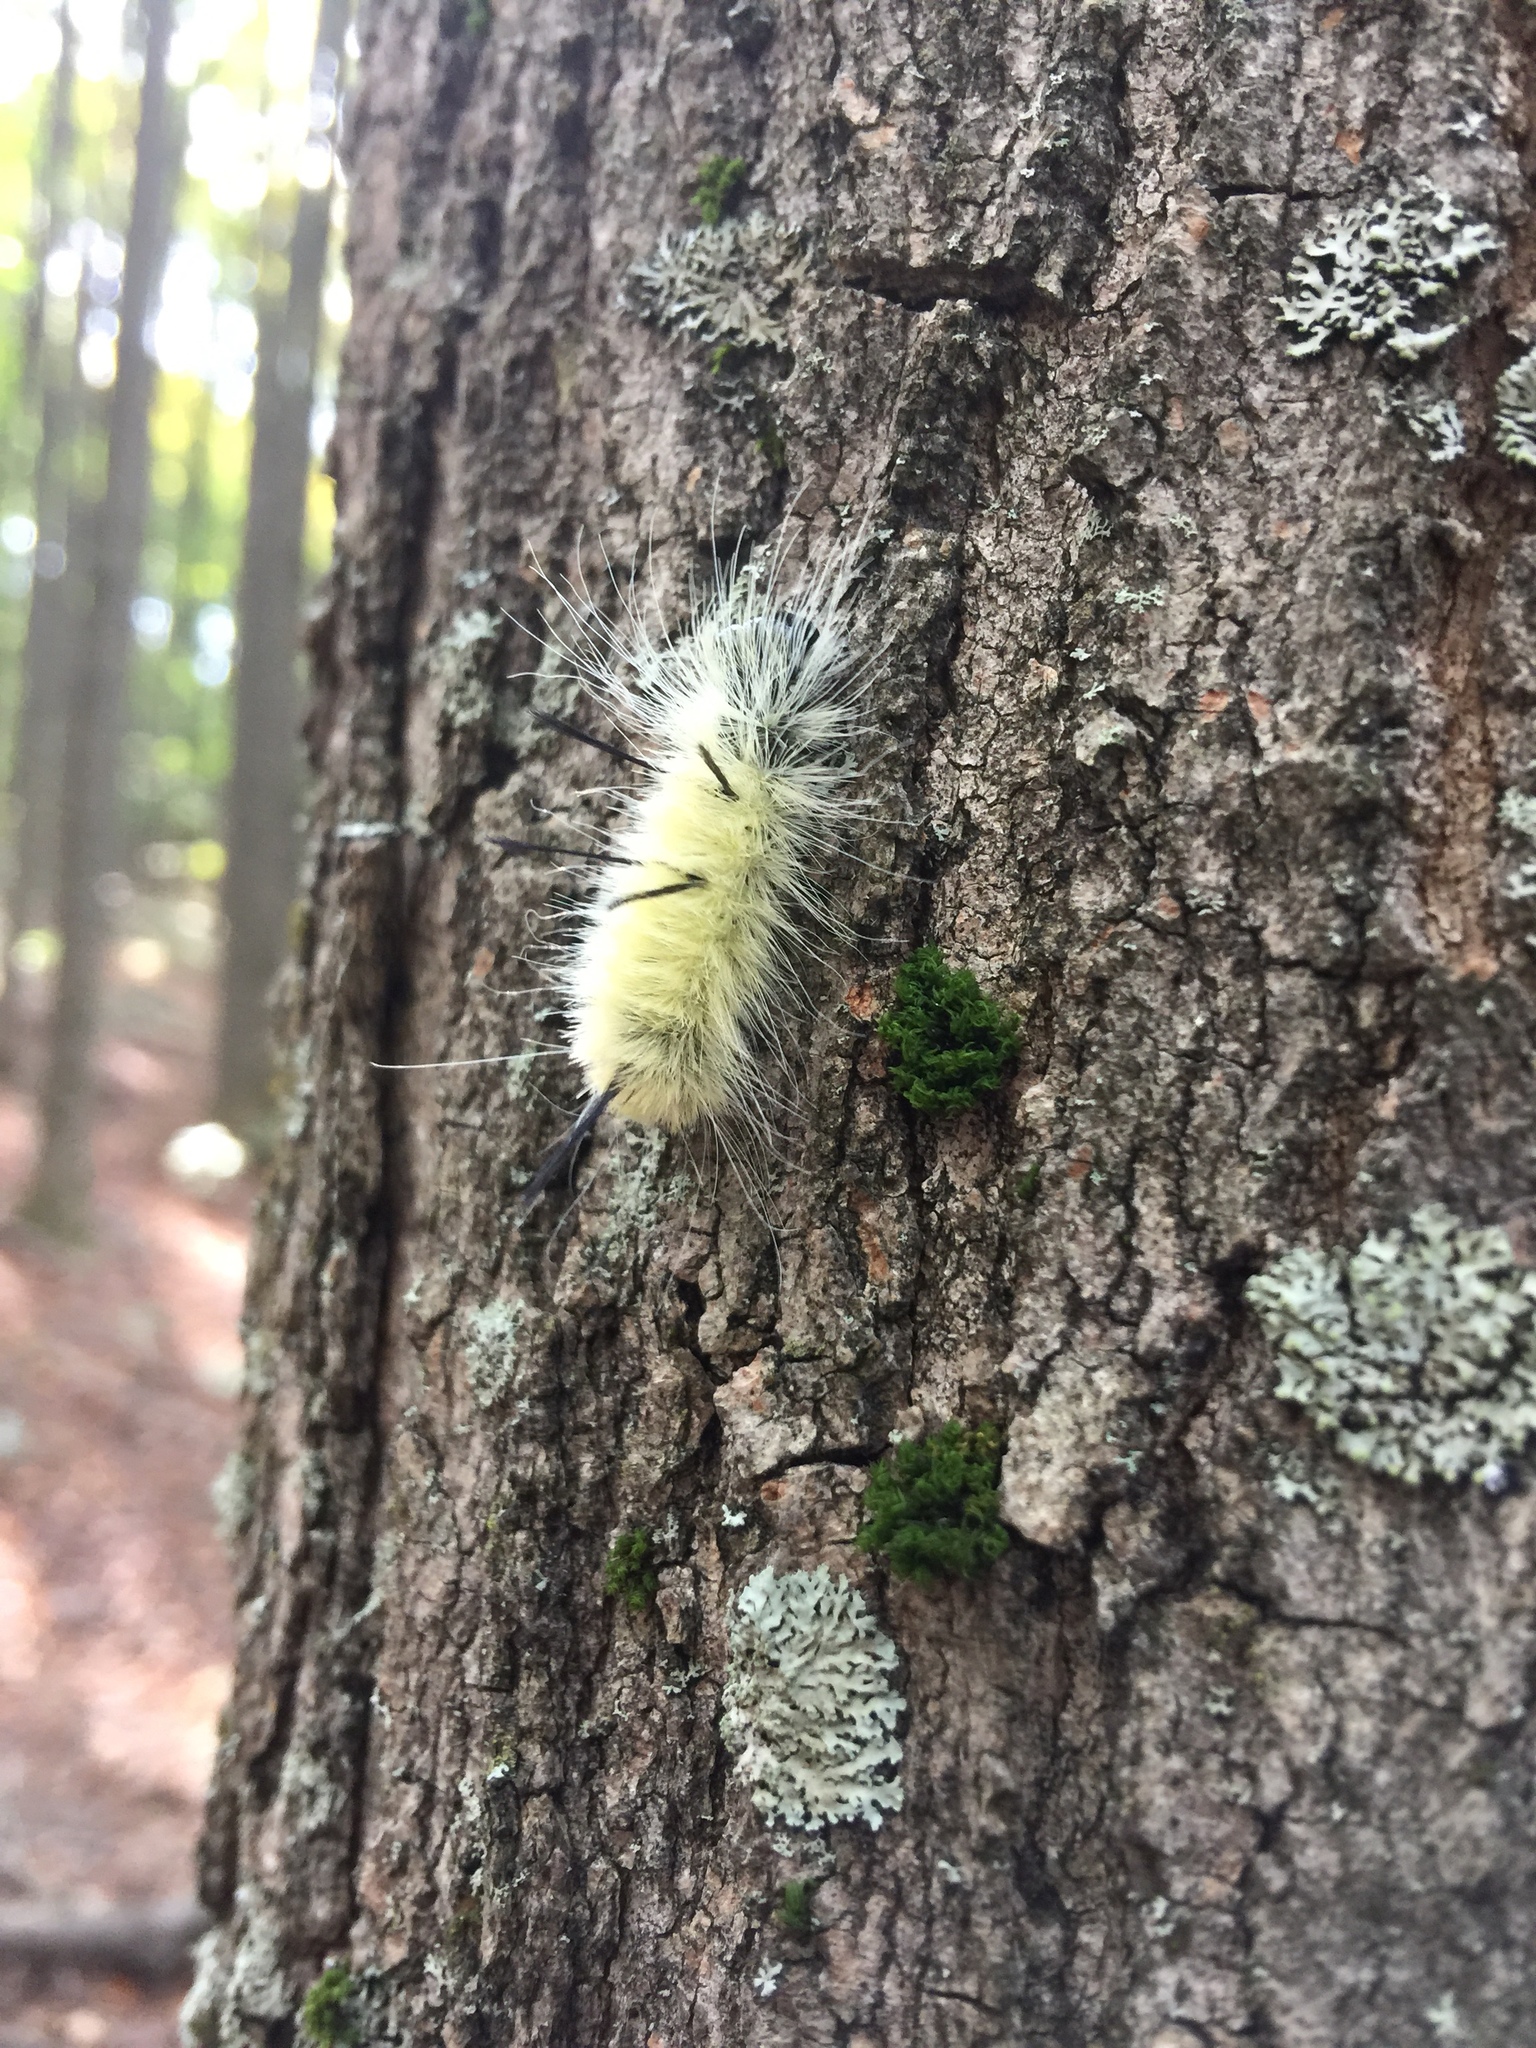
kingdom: Animalia
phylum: Arthropoda
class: Insecta
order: Lepidoptera
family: Noctuidae
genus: Acronicta
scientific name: Acronicta americana
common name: American dagger
